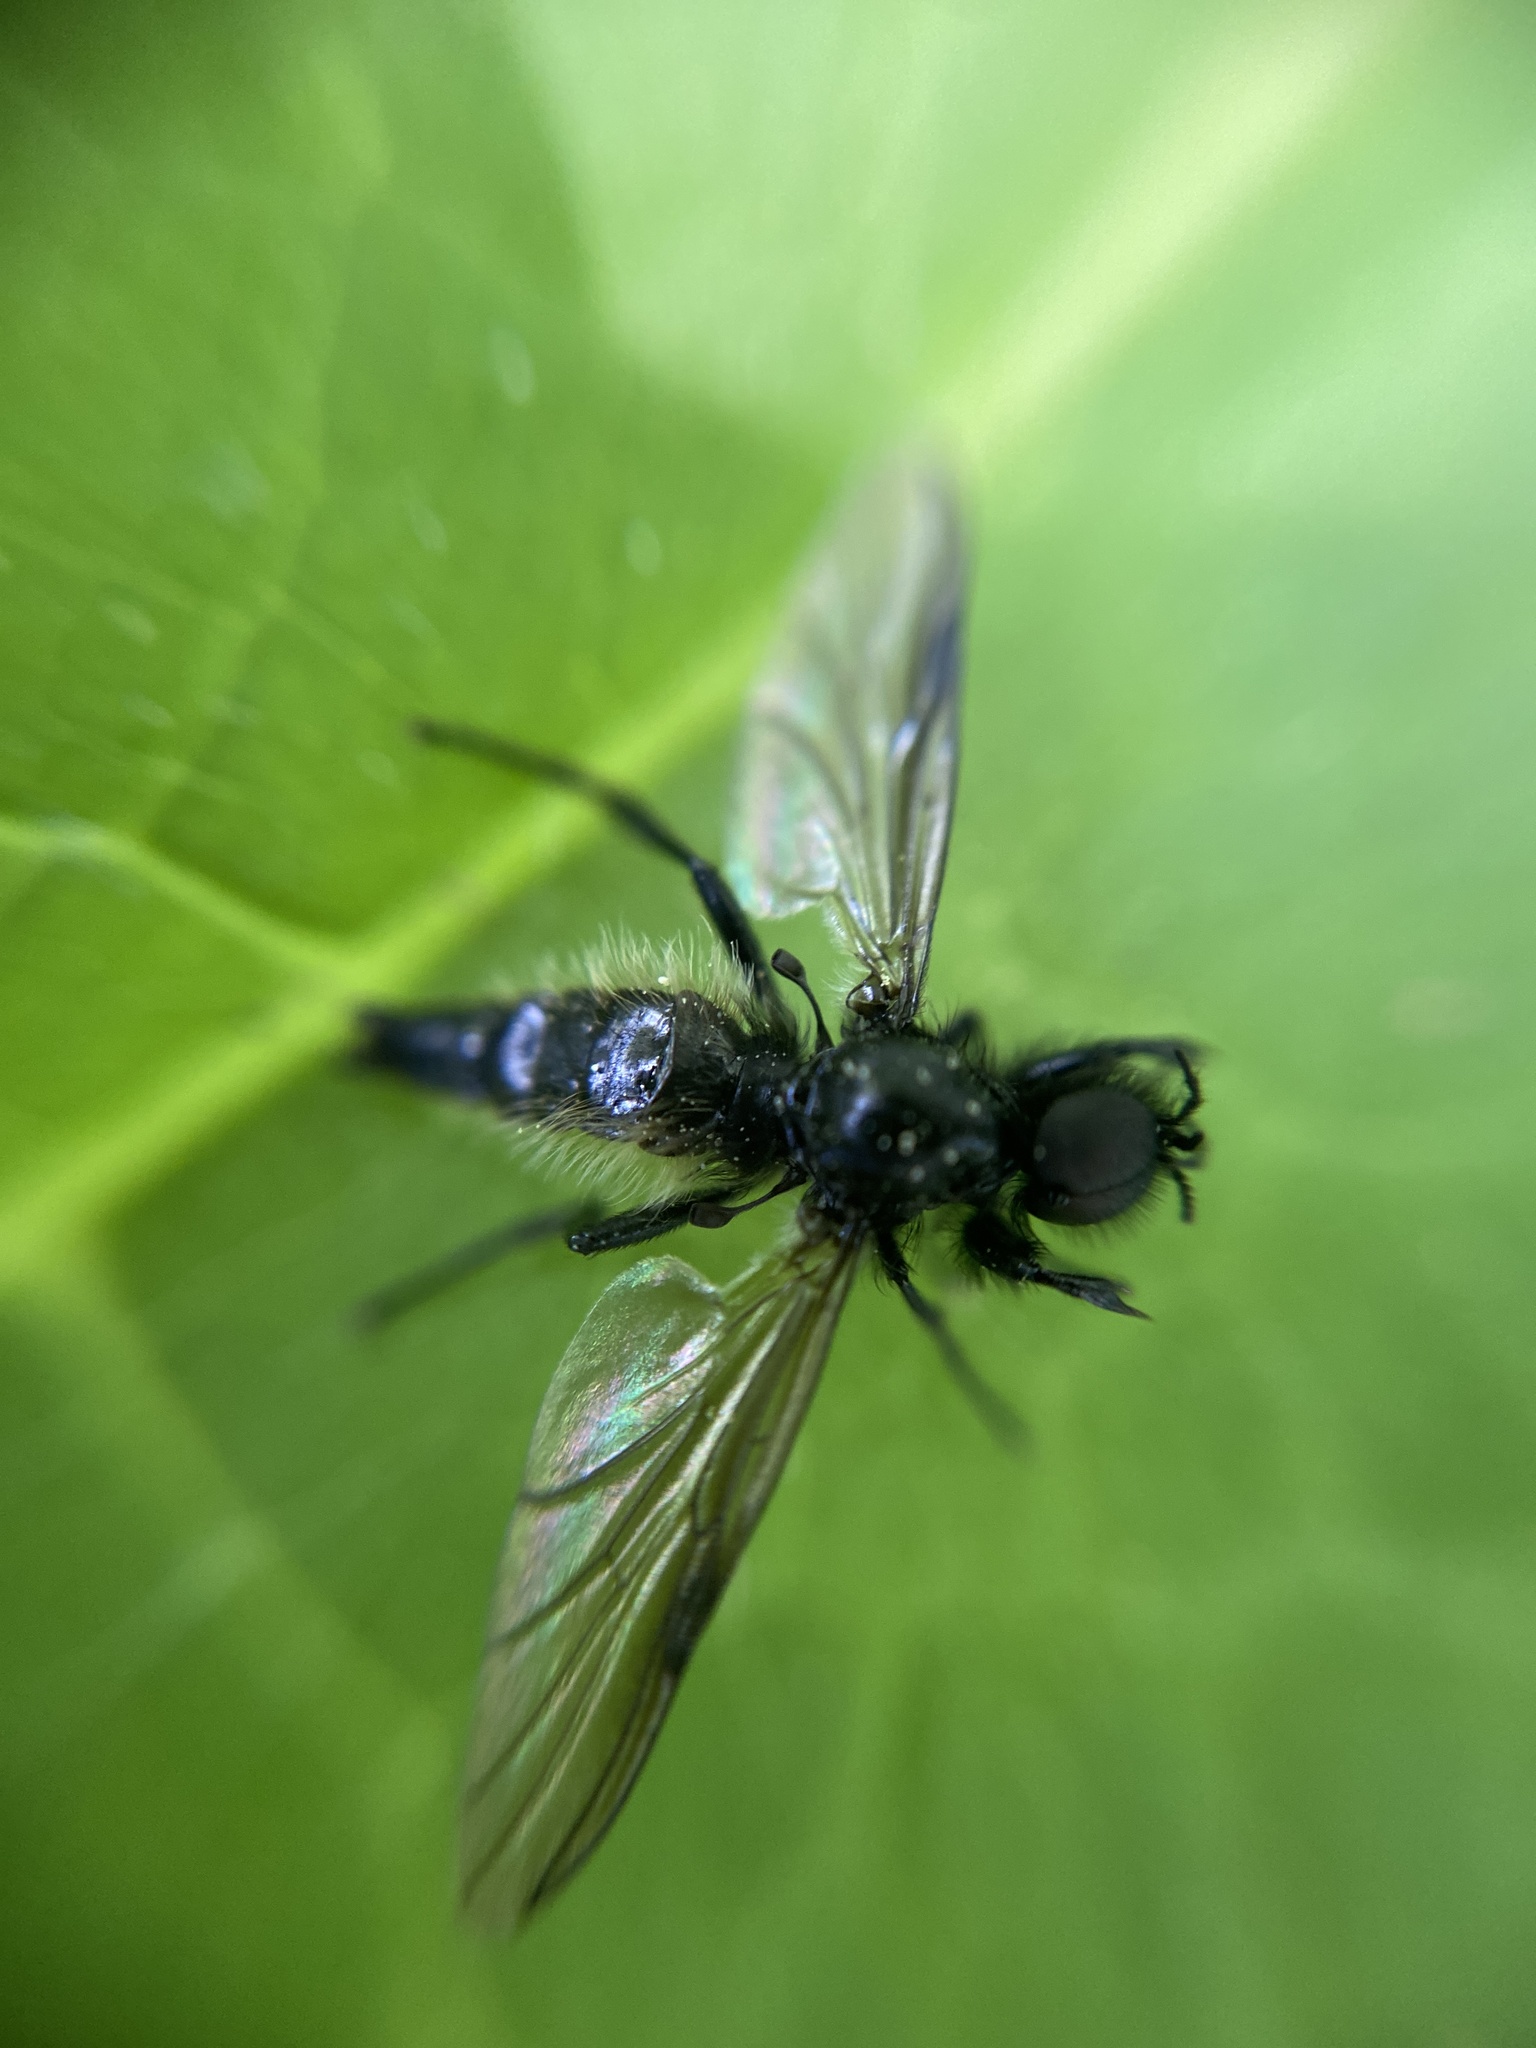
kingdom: Animalia
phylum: Arthropoda
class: Insecta
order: Diptera
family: Bibionidae
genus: Bibio
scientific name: Bibio lanigerus
